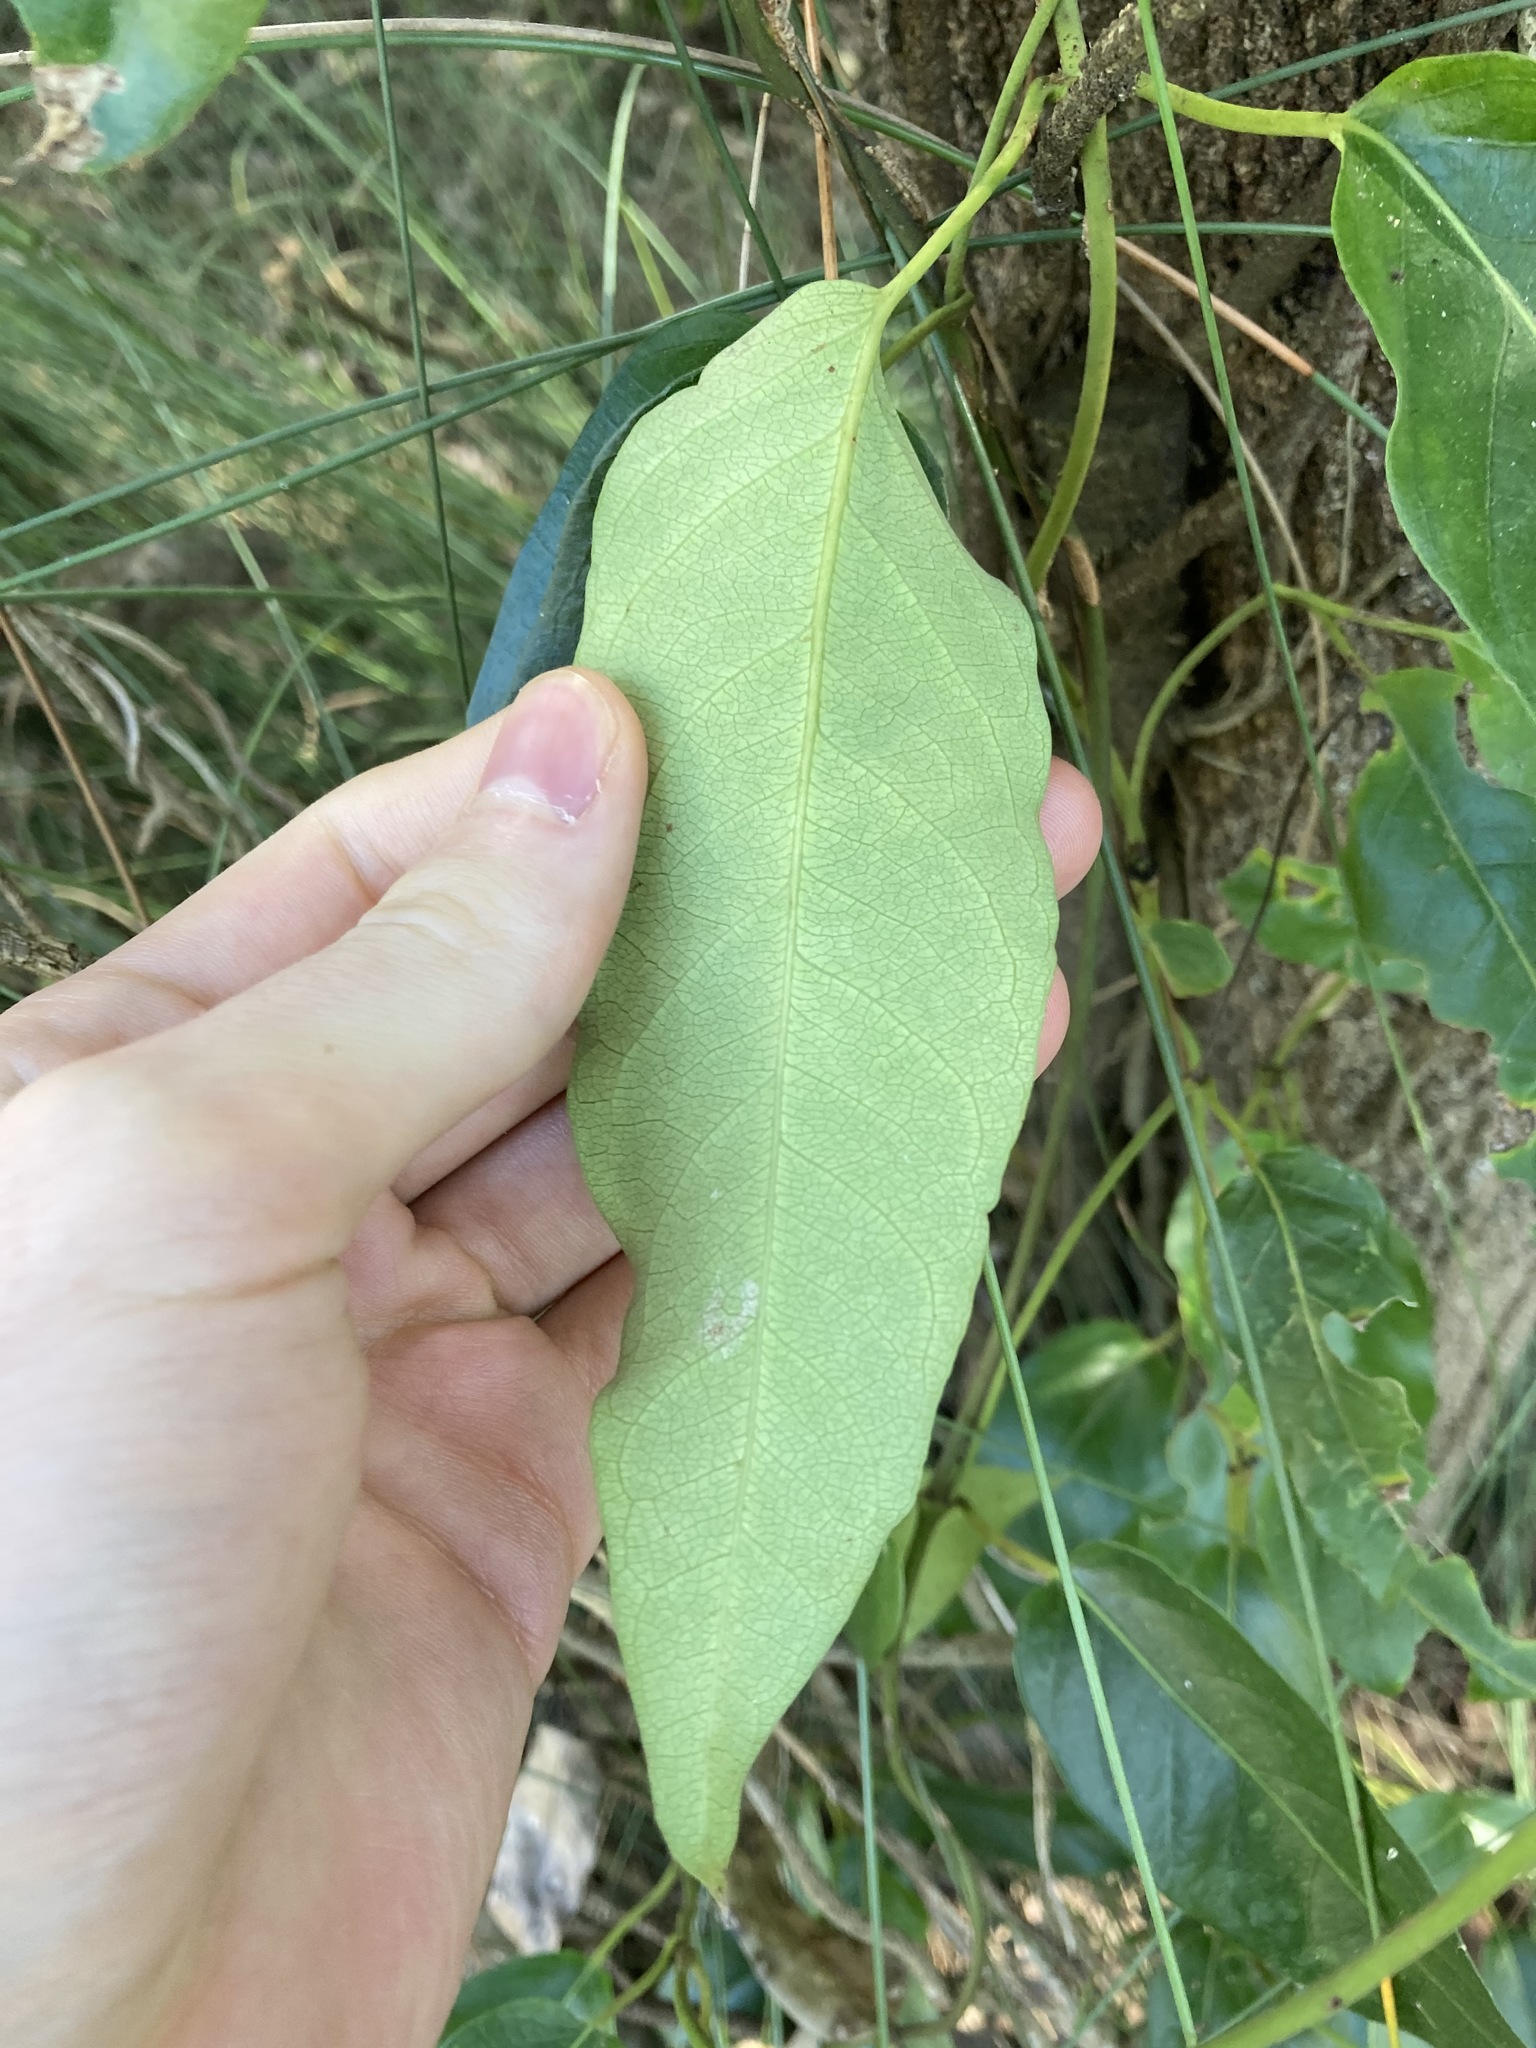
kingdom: Plantae
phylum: Tracheophyta
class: Magnoliopsida
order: Gentianales
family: Apocynaceae
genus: Parsonsia
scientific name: Parsonsia straminea
